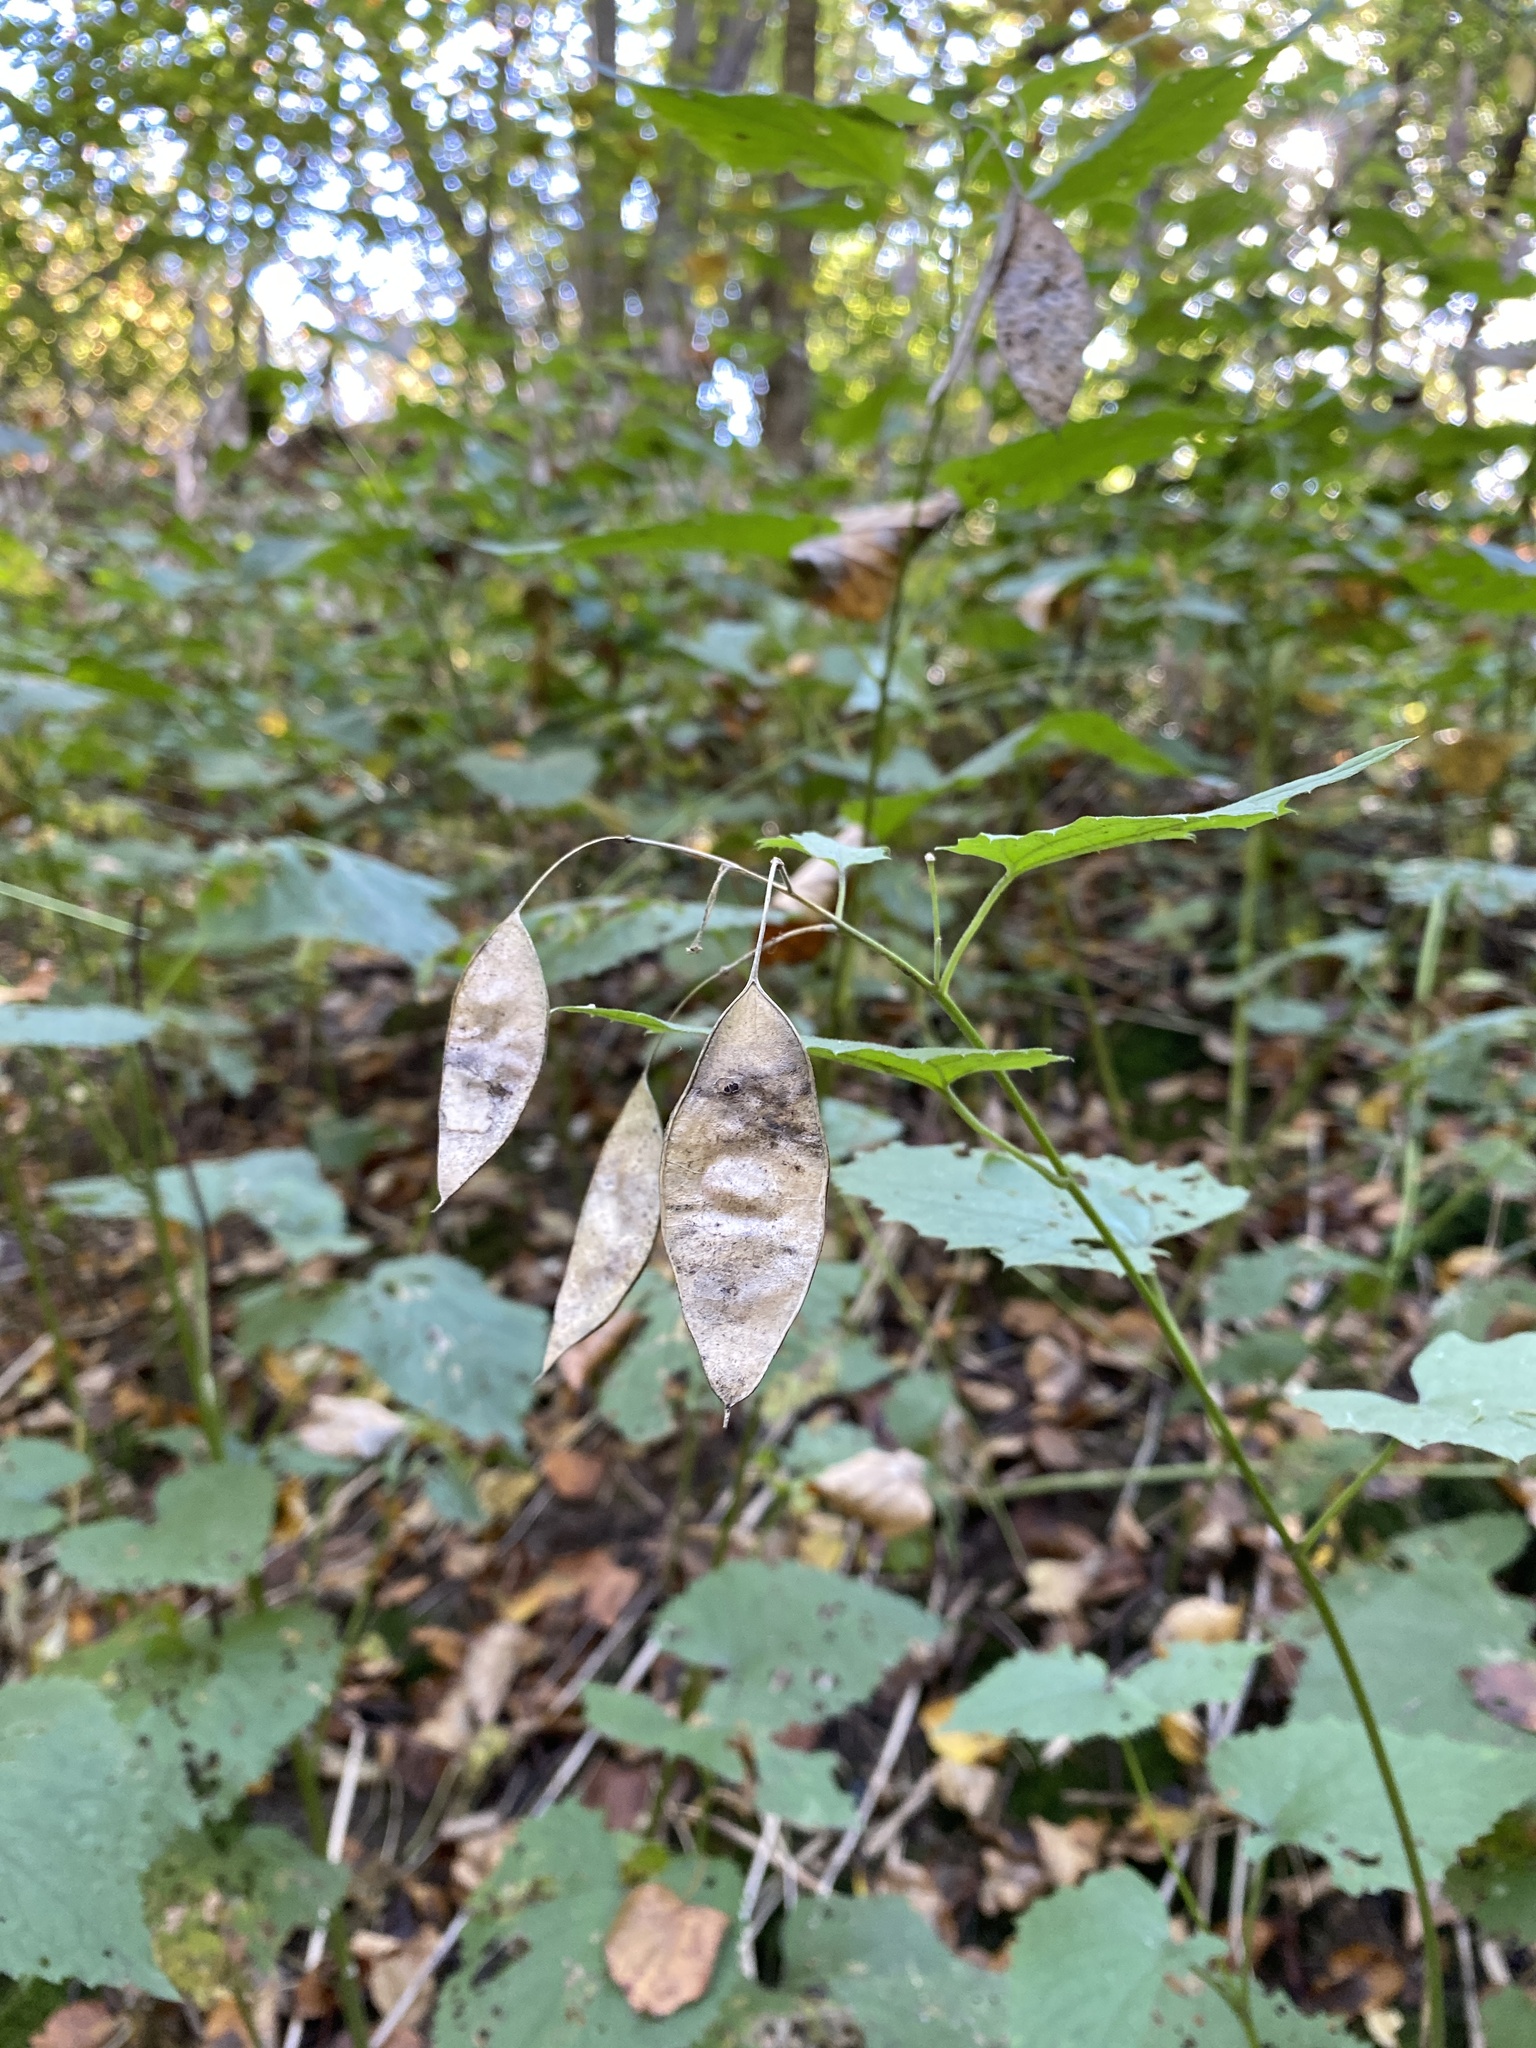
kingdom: Plantae
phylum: Tracheophyta
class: Magnoliopsida
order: Brassicales
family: Brassicaceae
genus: Lunaria
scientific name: Lunaria rediviva
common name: Perennial honesty
